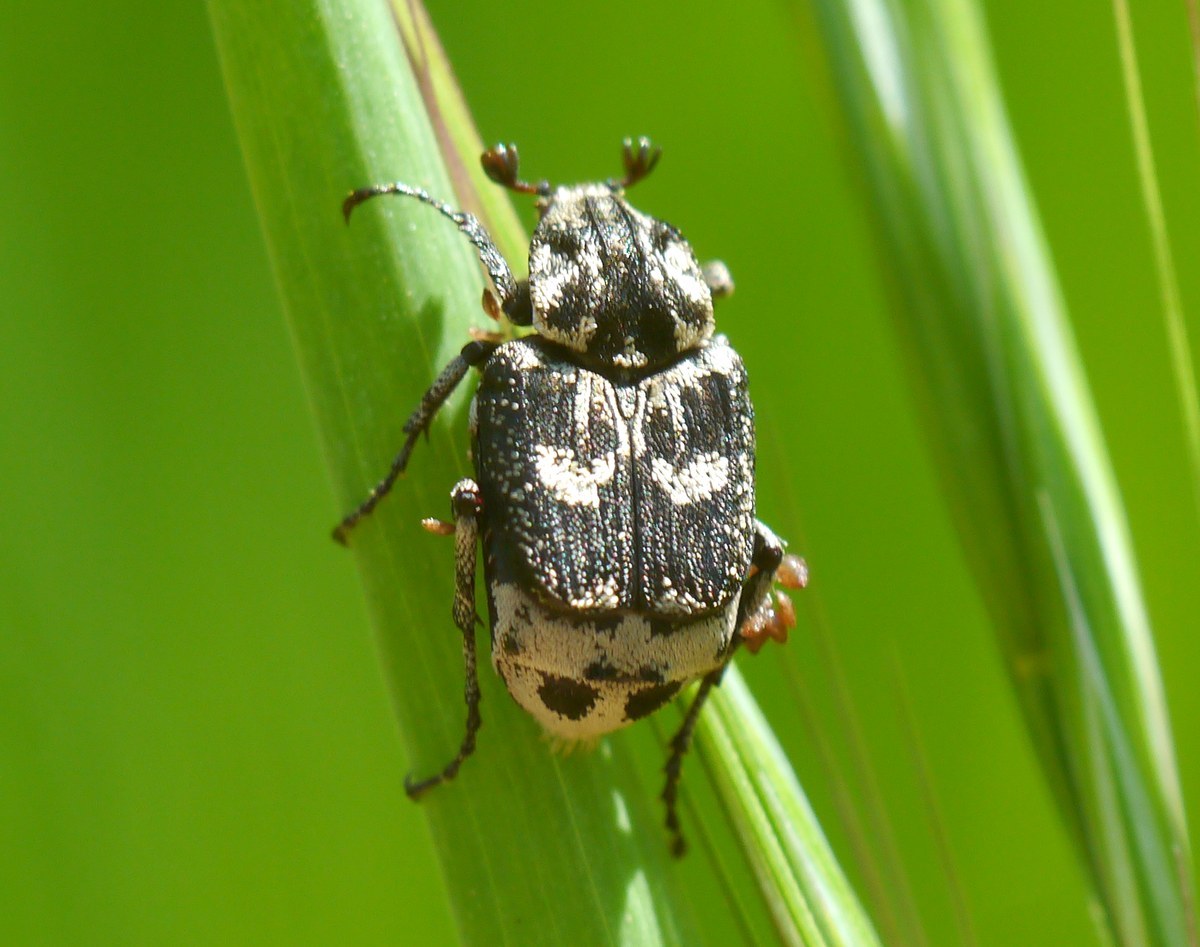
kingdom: Animalia
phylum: Arthropoda
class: Insecta
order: Coleoptera
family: Scarabaeidae
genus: Valgus
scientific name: Valgus hemipterus
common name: Bug flower chafer
